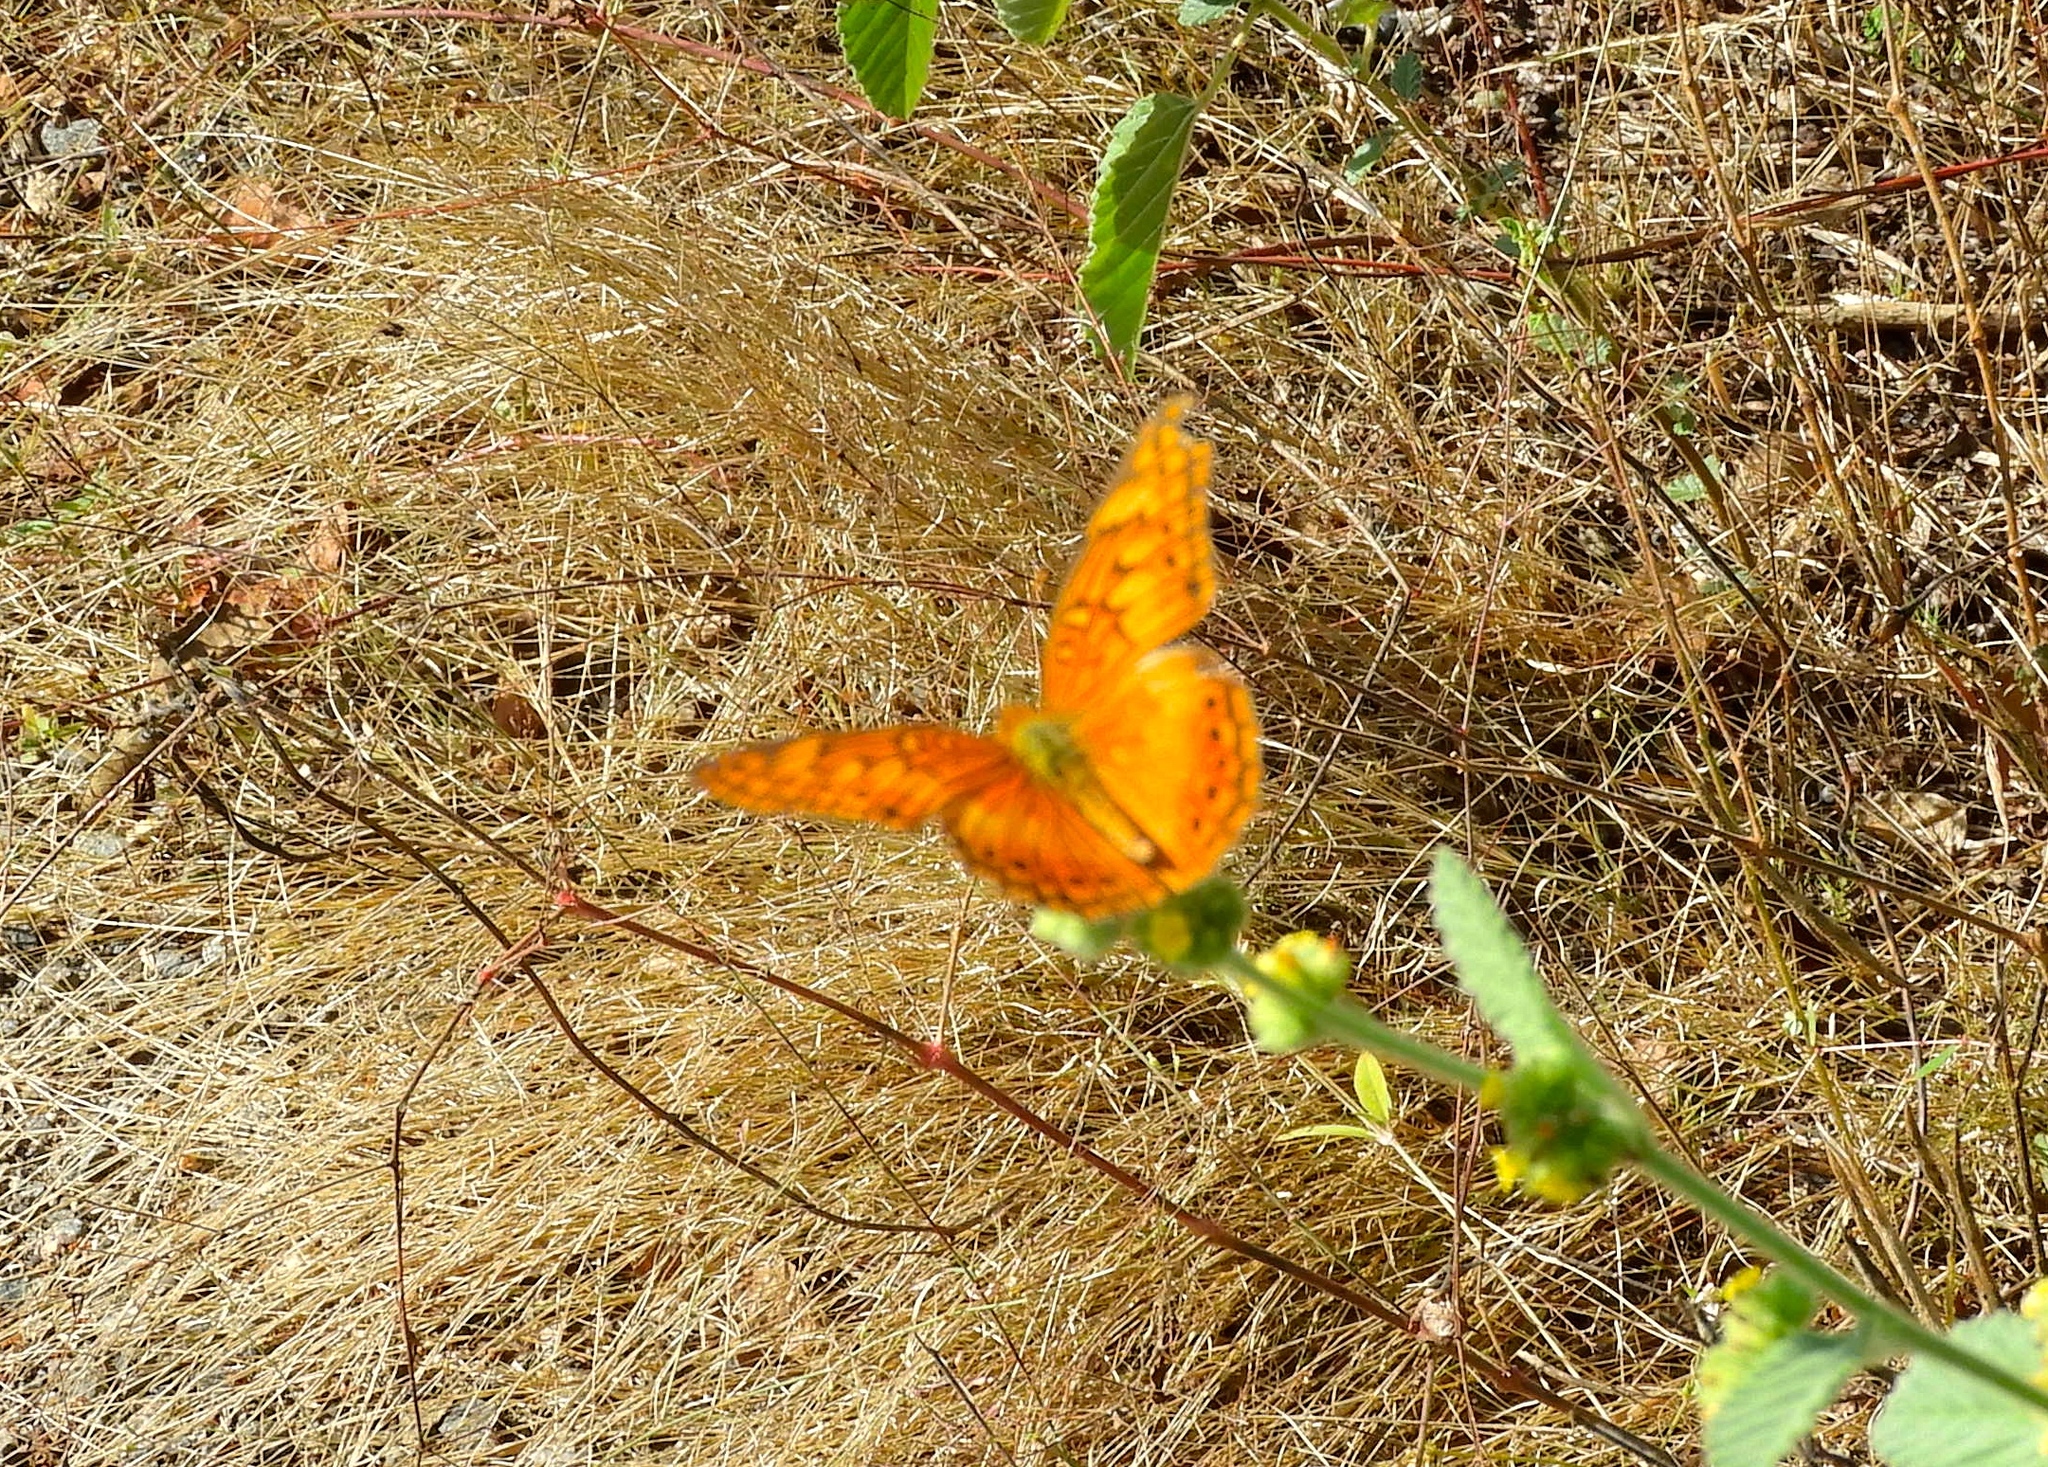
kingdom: Animalia
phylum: Arthropoda
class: Insecta
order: Lepidoptera
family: Nymphalidae
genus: Euptoieta
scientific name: Euptoieta hegesia
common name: Mexican fritillary
